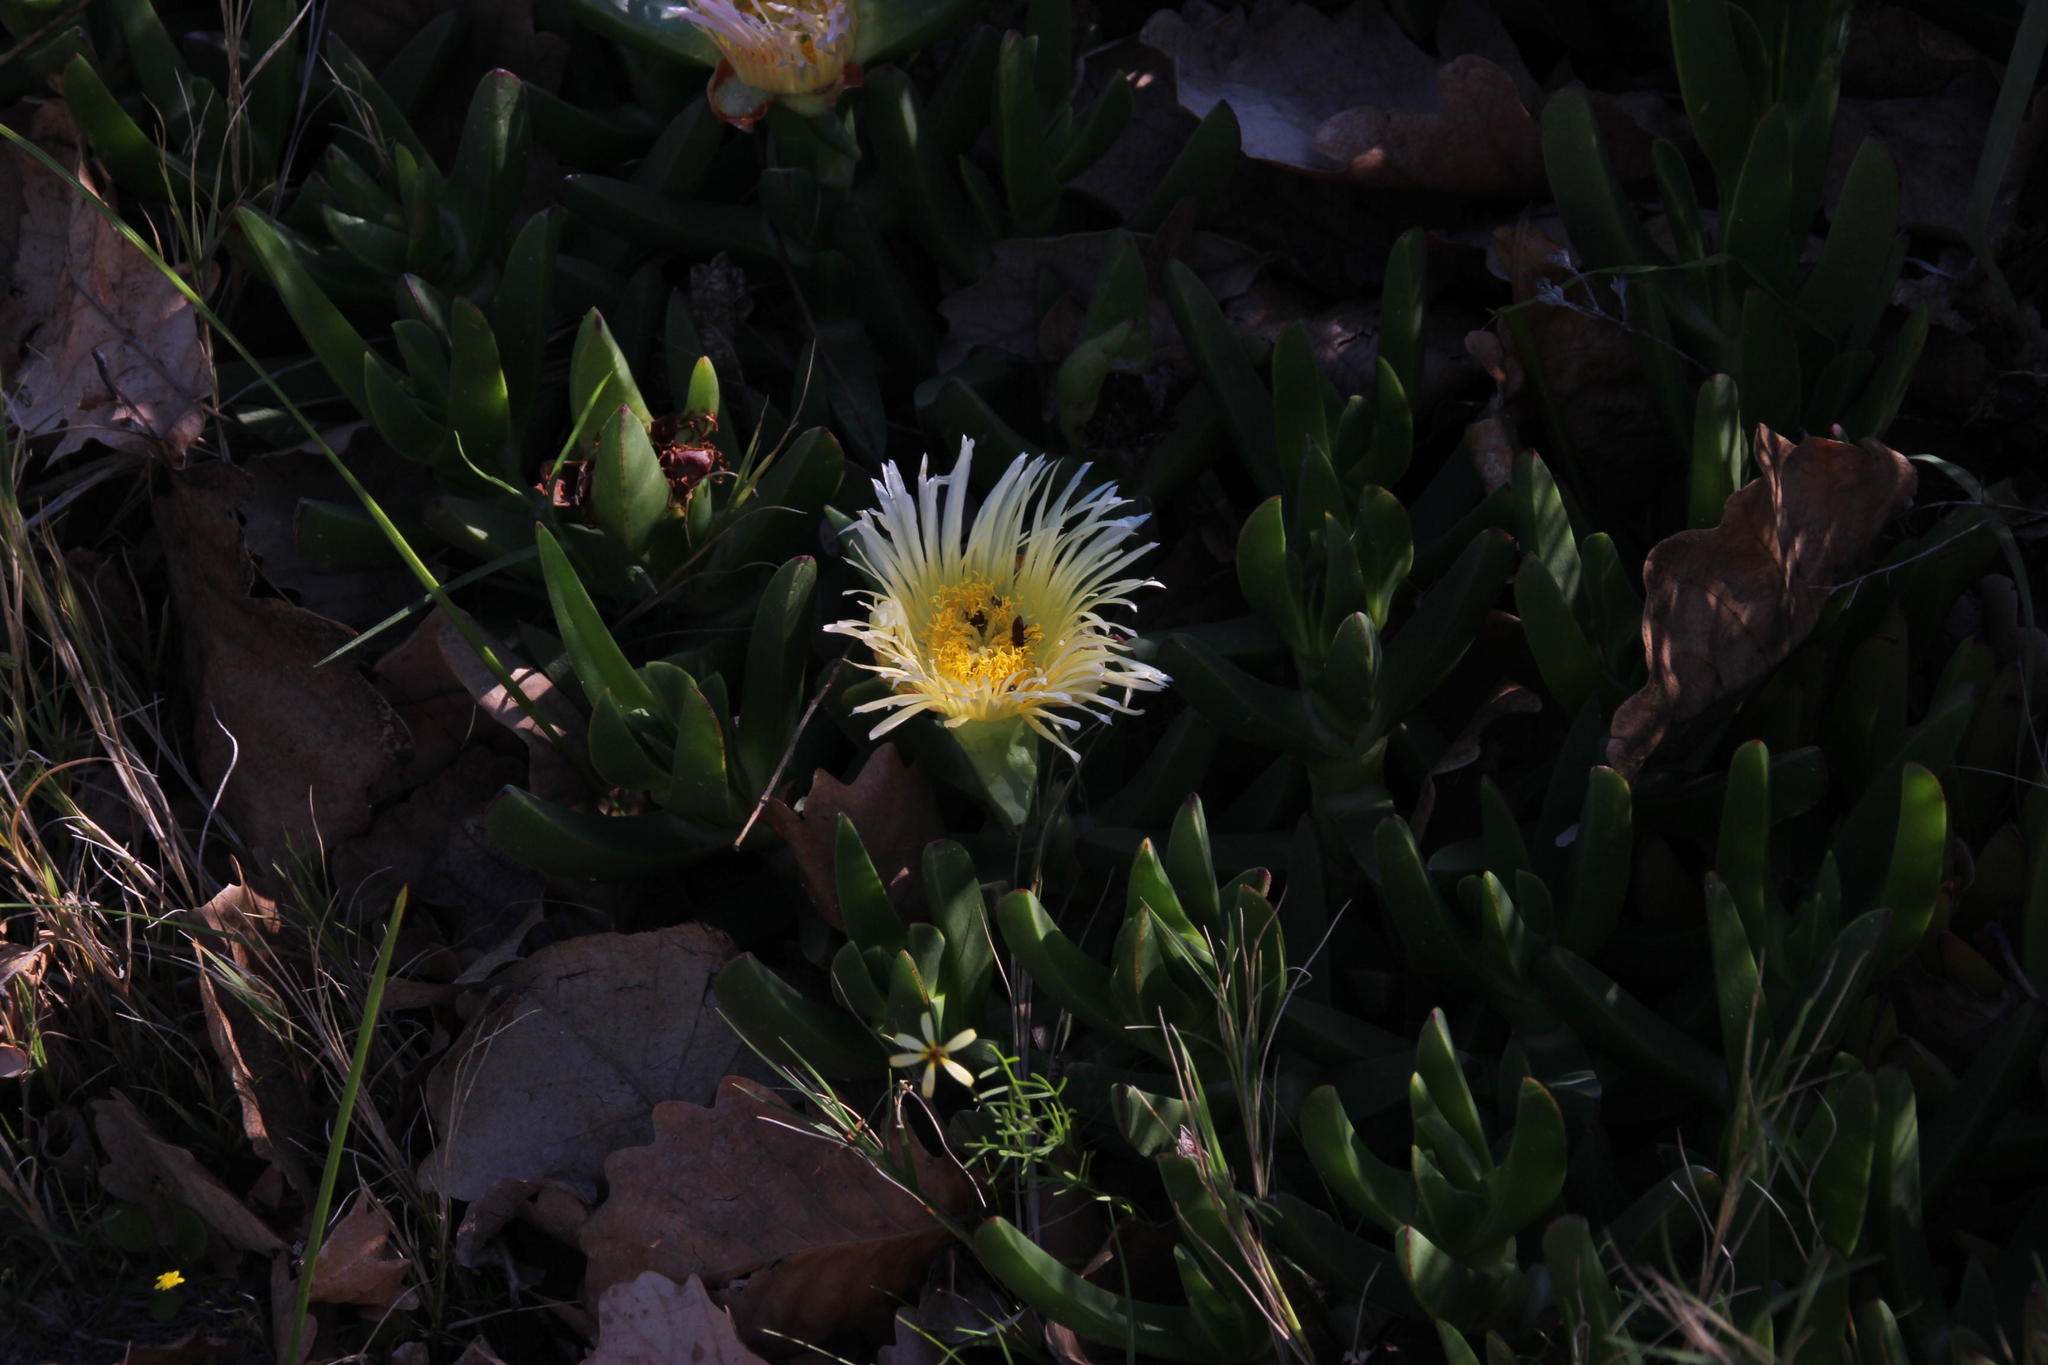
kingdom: Plantae
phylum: Tracheophyta
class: Magnoliopsida
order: Caryophyllales
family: Aizoaceae
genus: Carpobrotus
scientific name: Carpobrotus edulis
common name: Hottentot-fig
